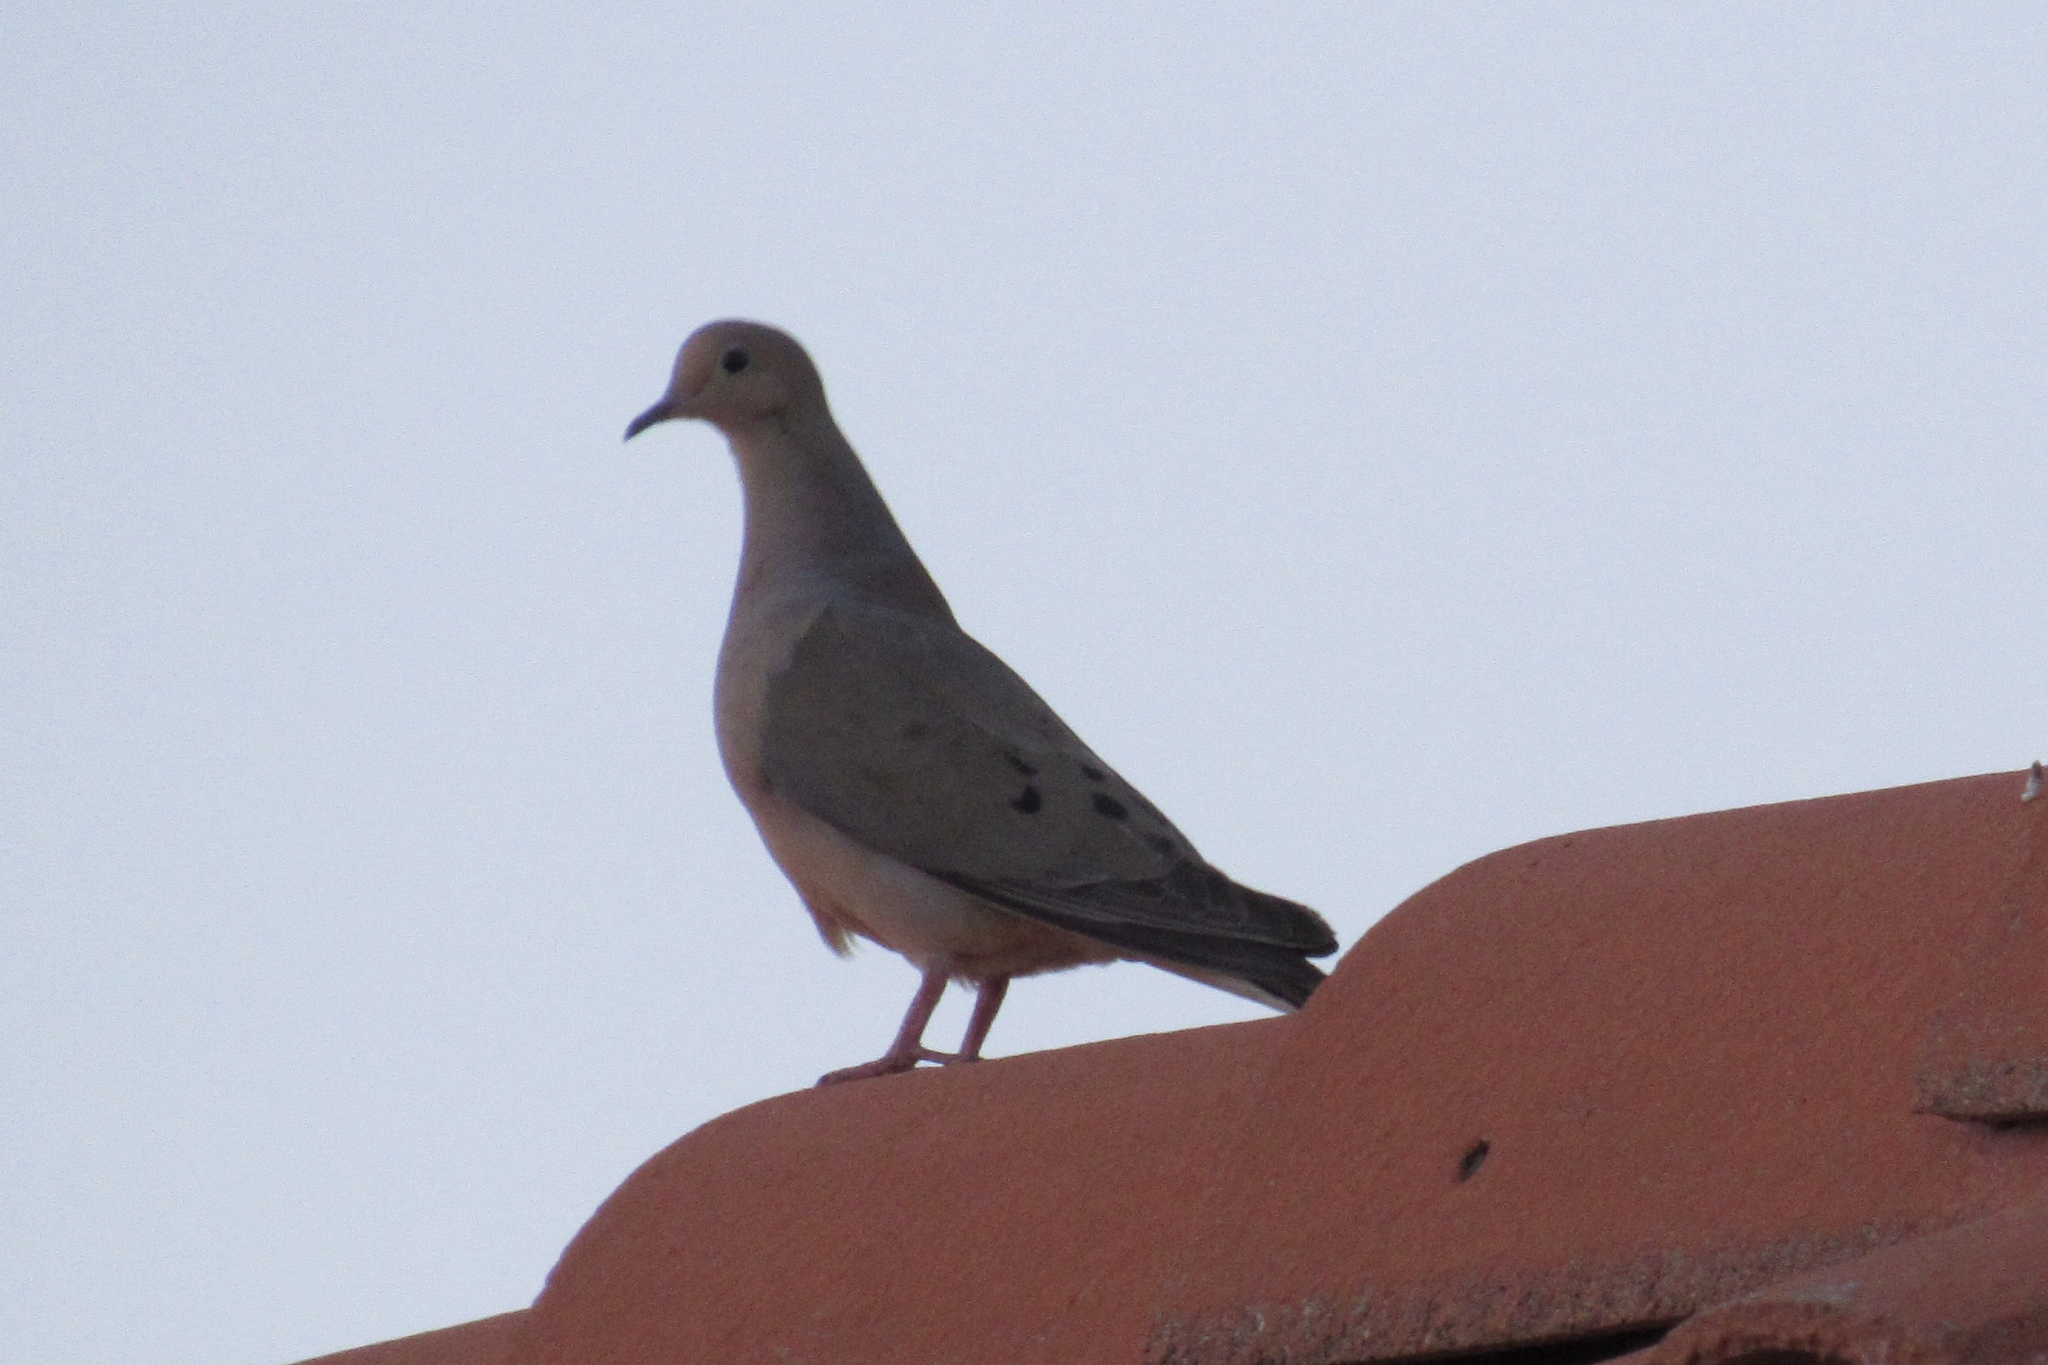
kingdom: Animalia
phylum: Chordata
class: Aves
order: Columbiformes
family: Columbidae
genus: Zenaida
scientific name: Zenaida macroura
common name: Mourning dove
